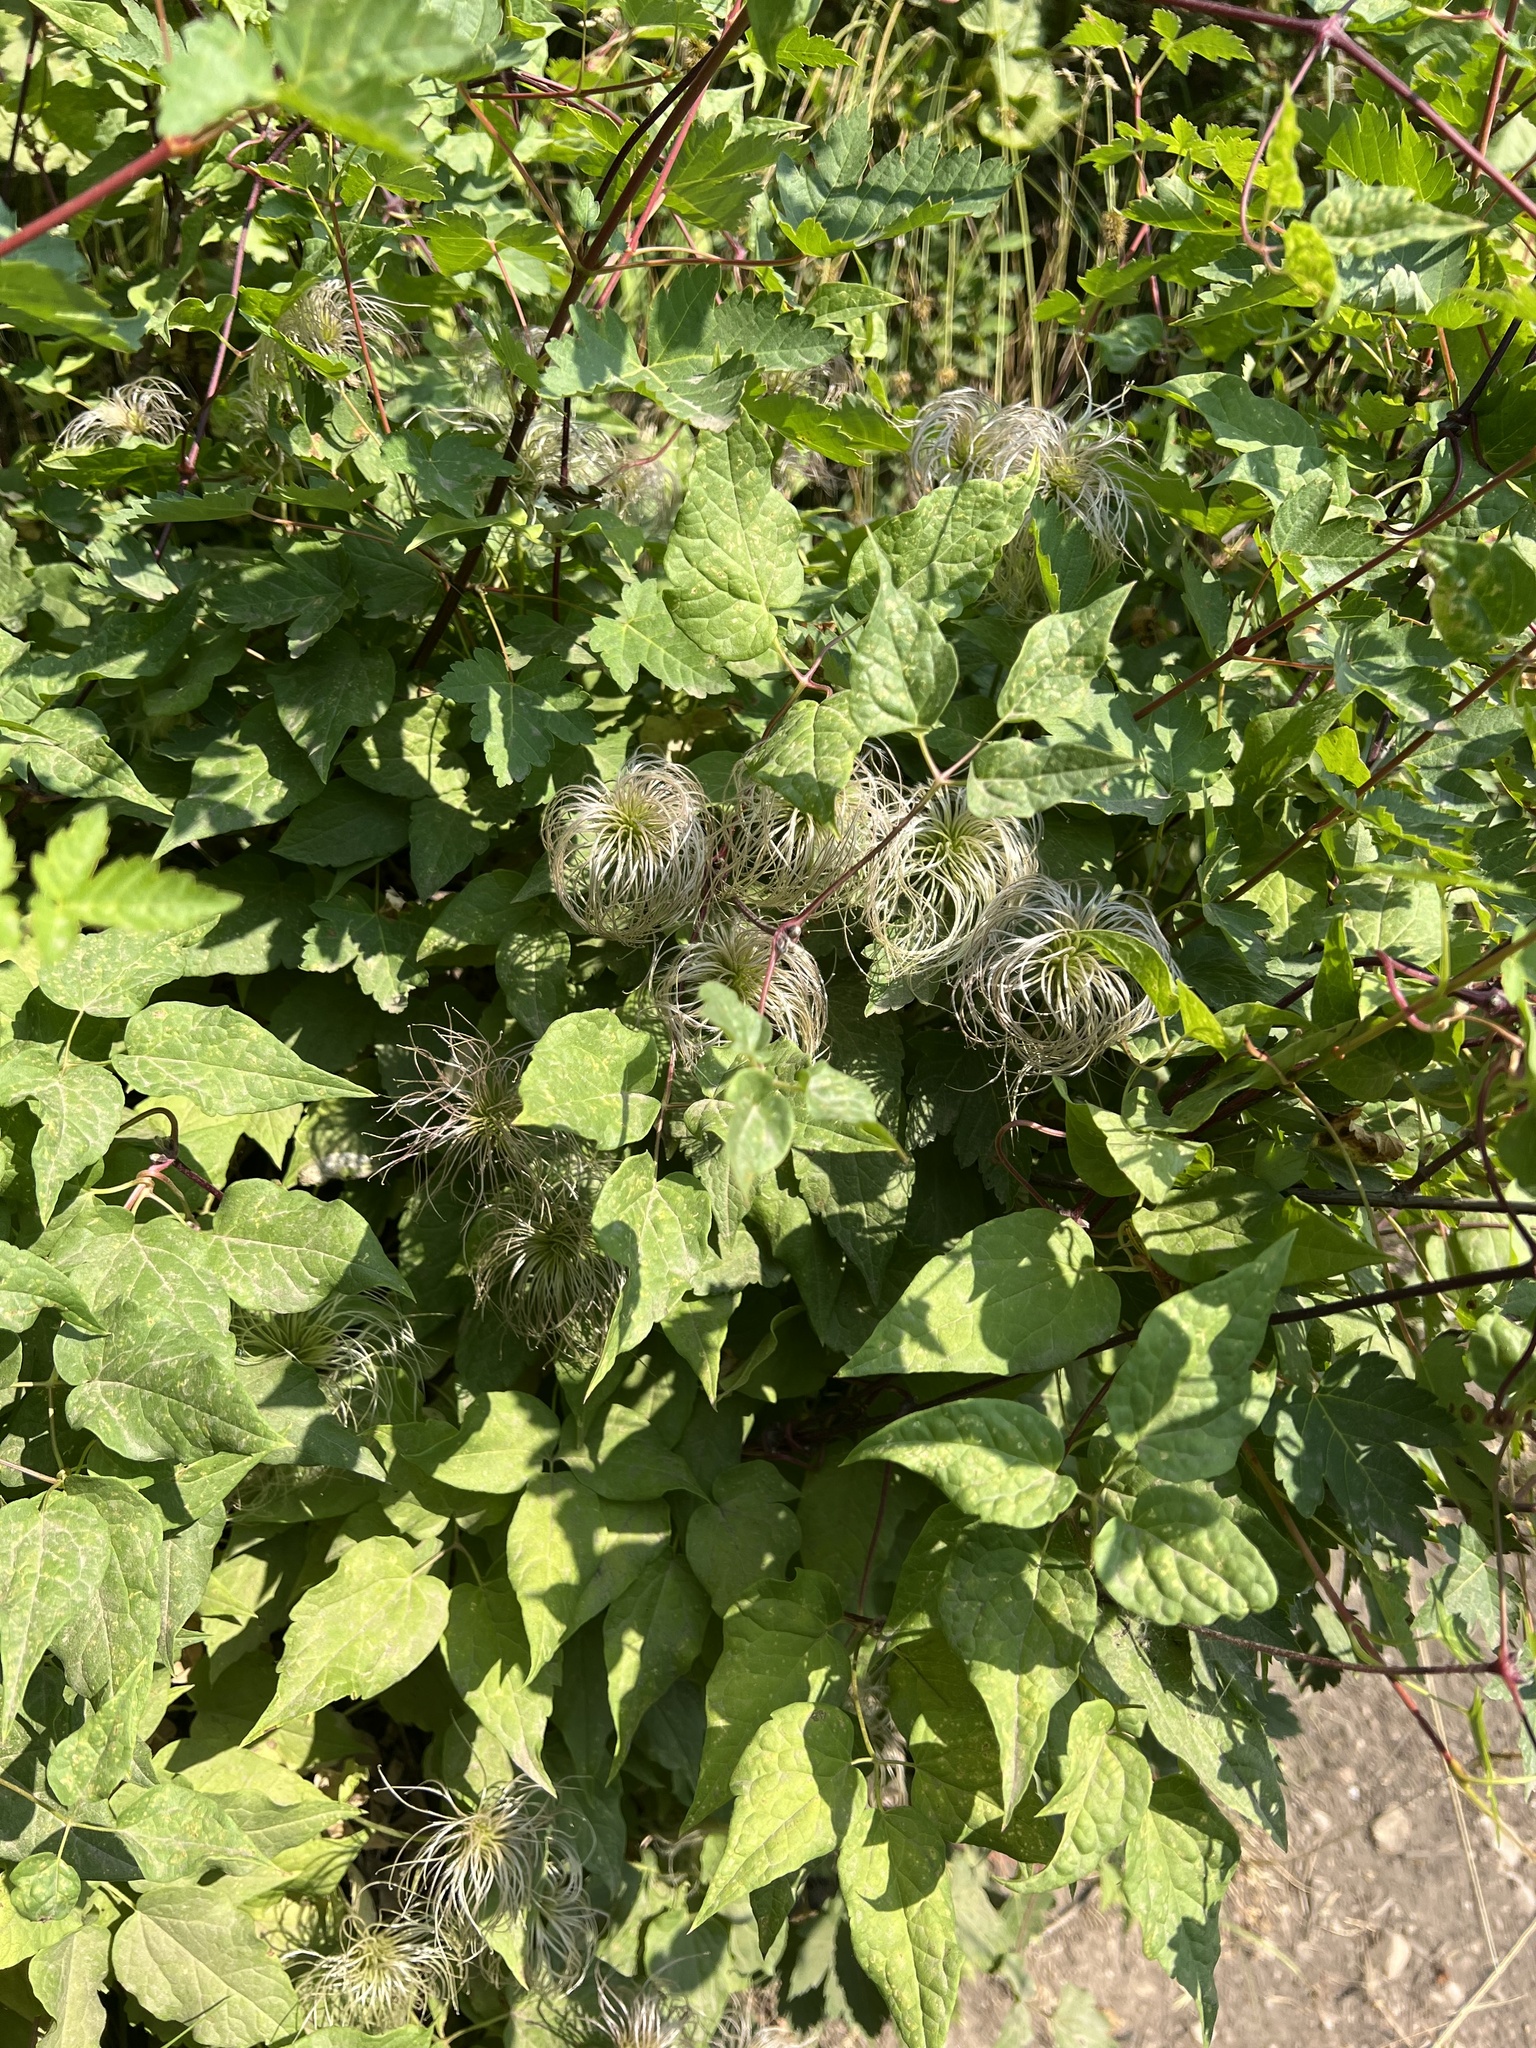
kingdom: Plantae
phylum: Tracheophyta
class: Magnoliopsida
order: Ranunculales
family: Ranunculaceae
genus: Clematis
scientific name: Clematis occidentalis
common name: Purple clematis
